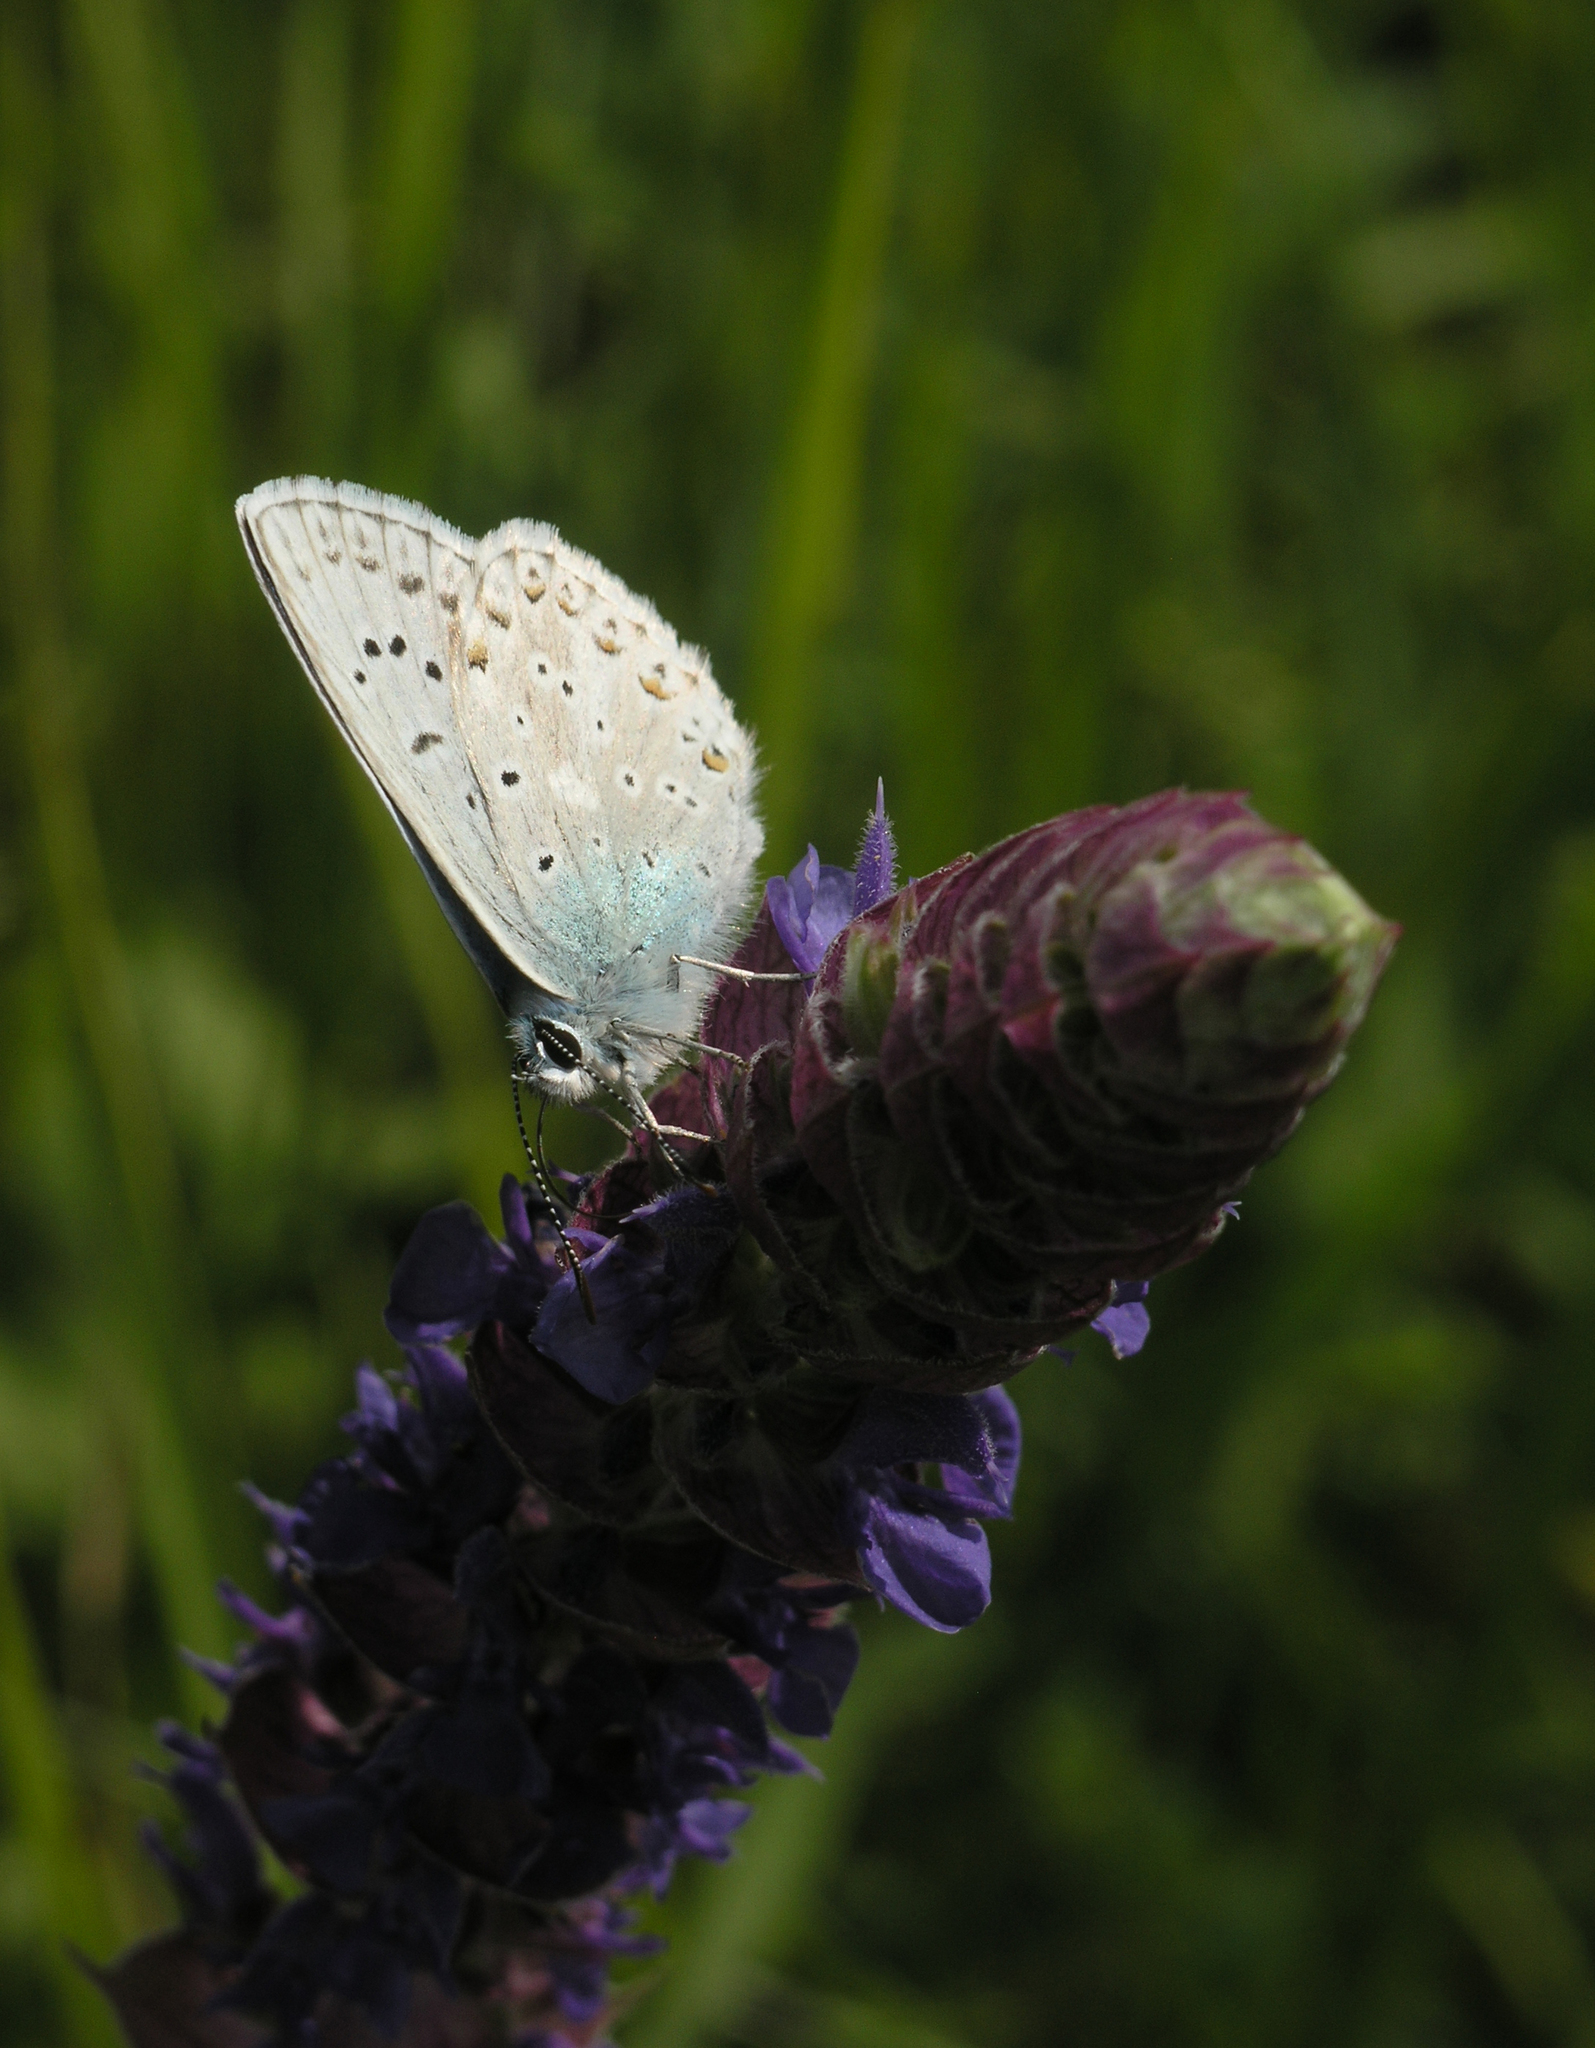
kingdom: Animalia
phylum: Arthropoda
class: Insecta
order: Lepidoptera
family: Lycaenidae
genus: Agriades
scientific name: Agriades corydonius
